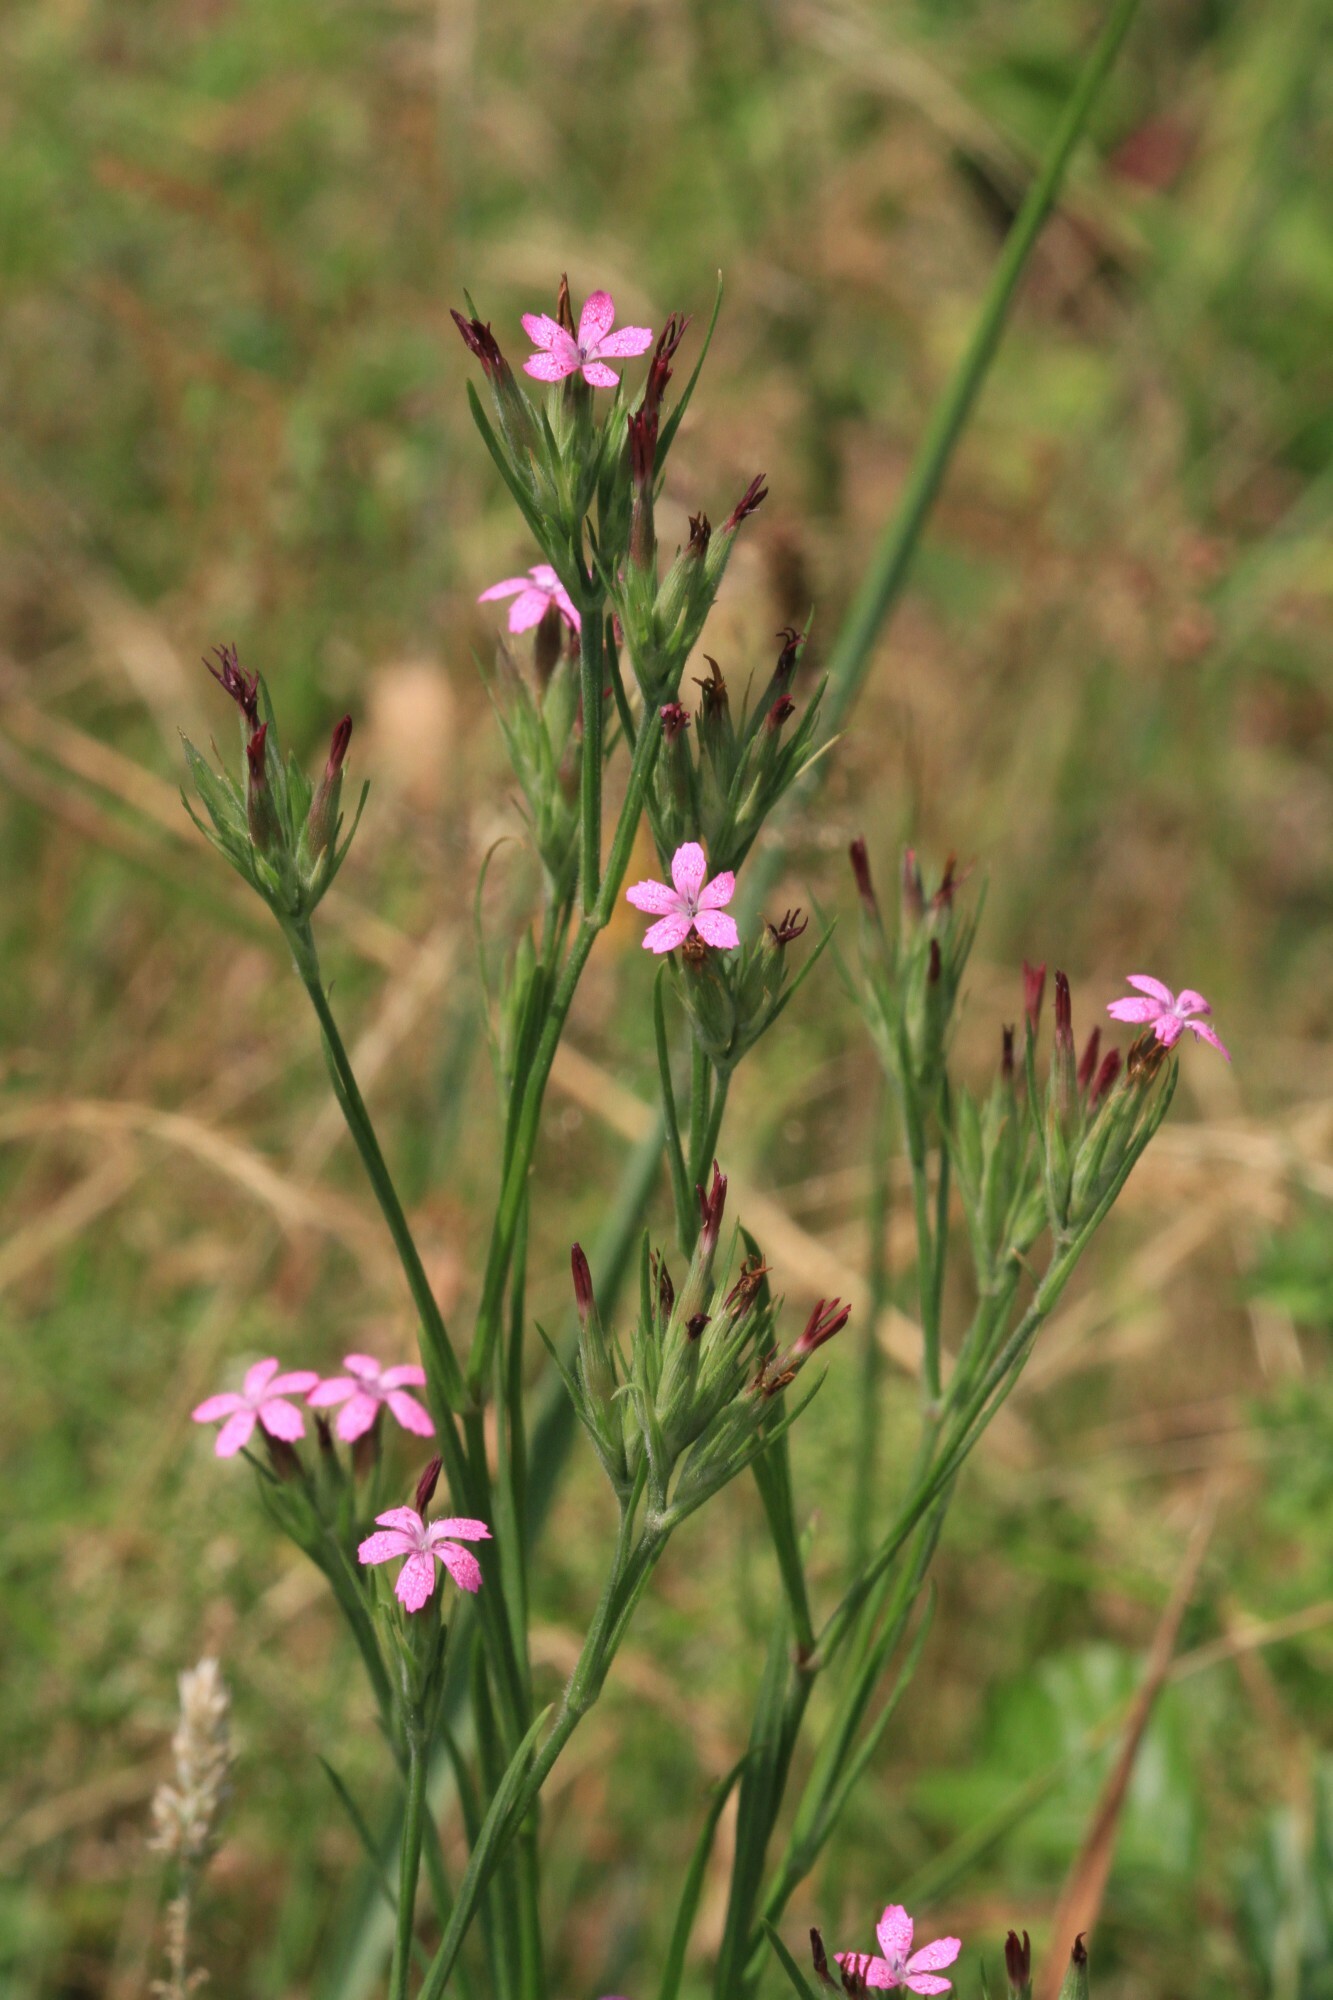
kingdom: Plantae
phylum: Tracheophyta
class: Magnoliopsida
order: Caryophyllales
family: Caryophyllaceae
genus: Dianthus
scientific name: Dianthus armeria
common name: Deptford pink
